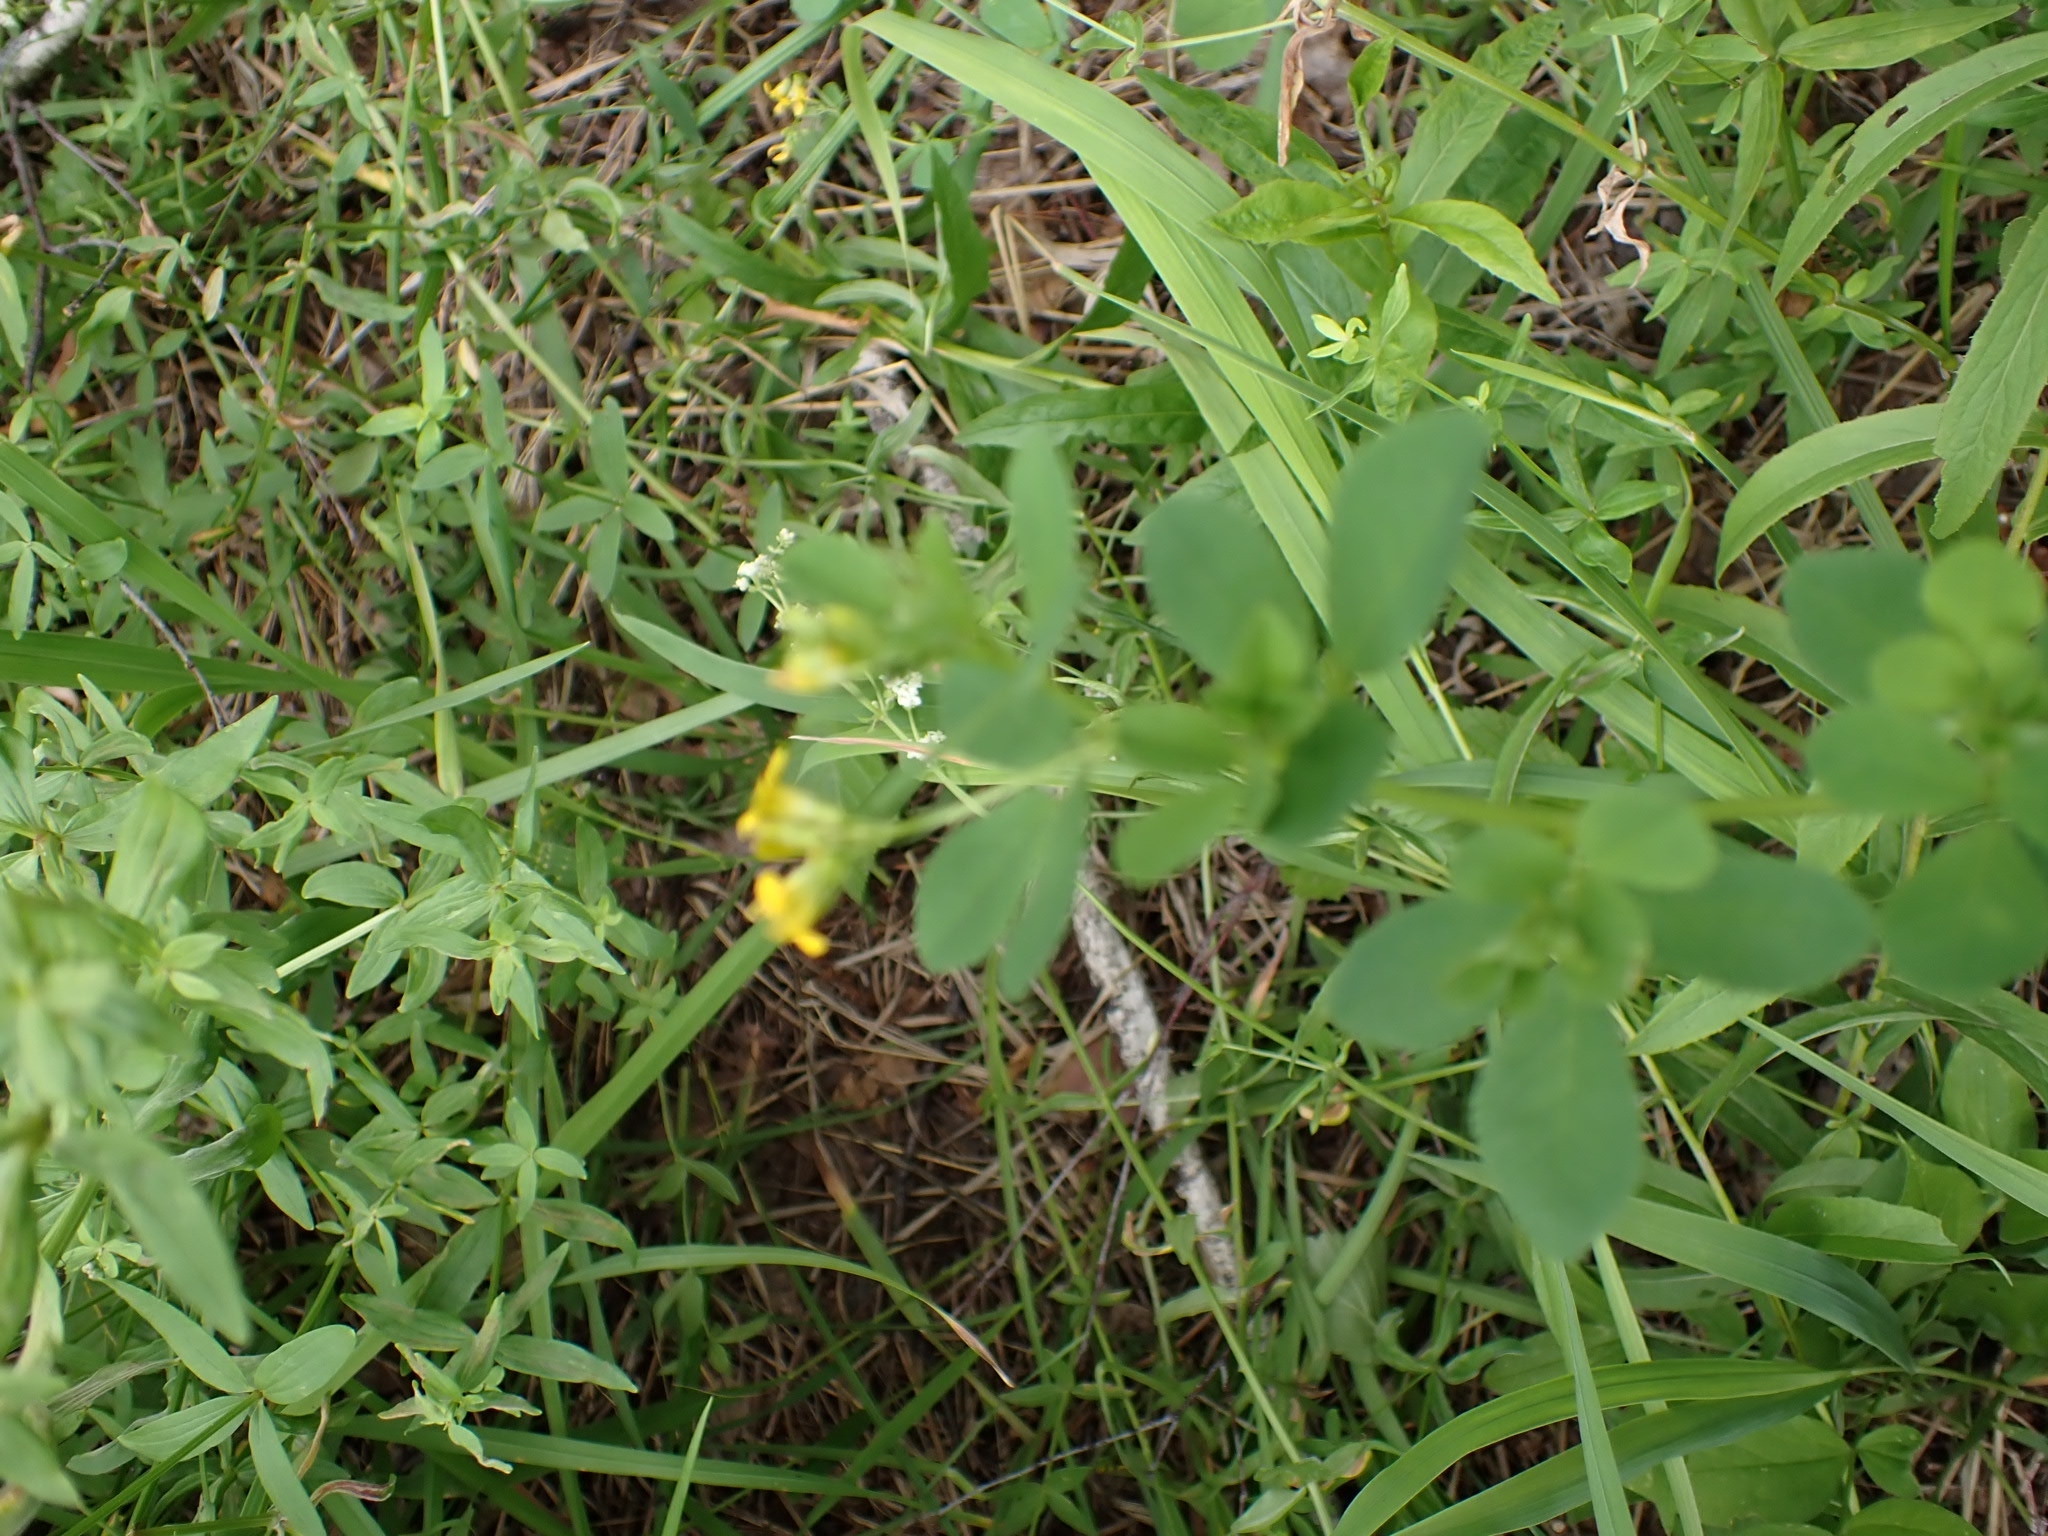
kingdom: Plantae
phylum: Tracheophyta
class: Magnoliopsida
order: Fabales
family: Fabaceae
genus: Medicago
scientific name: Medicago platycarpos
